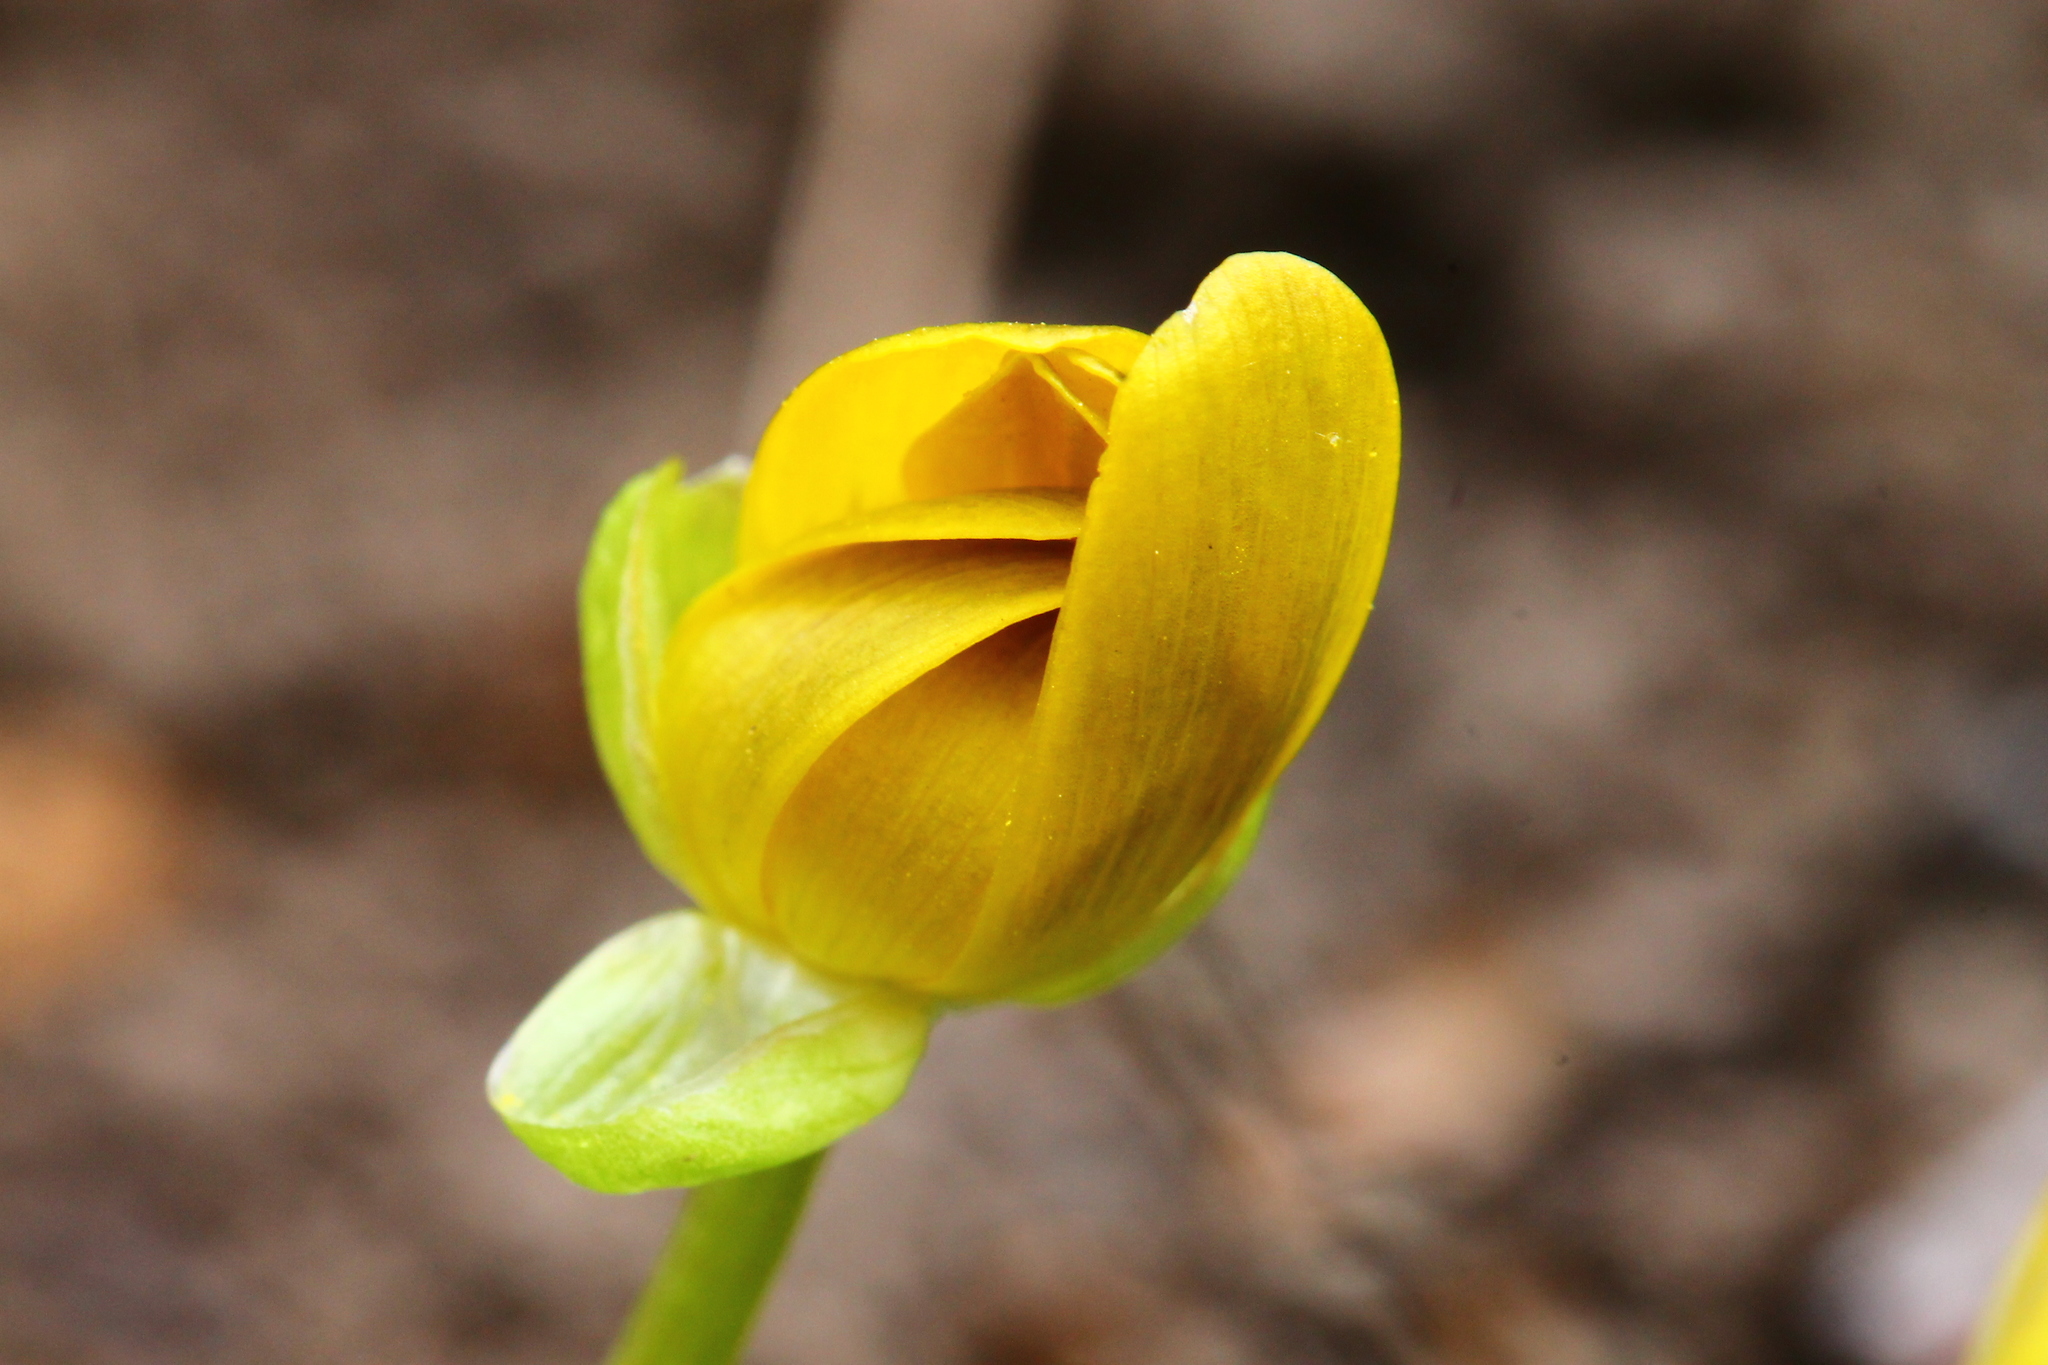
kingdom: Plantae
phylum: Tracheophyta
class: Magnoliopsida
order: Ranunculales
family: Ranunculaceae
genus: Ficaria
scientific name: Ficaria verna
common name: Lesser celandine
